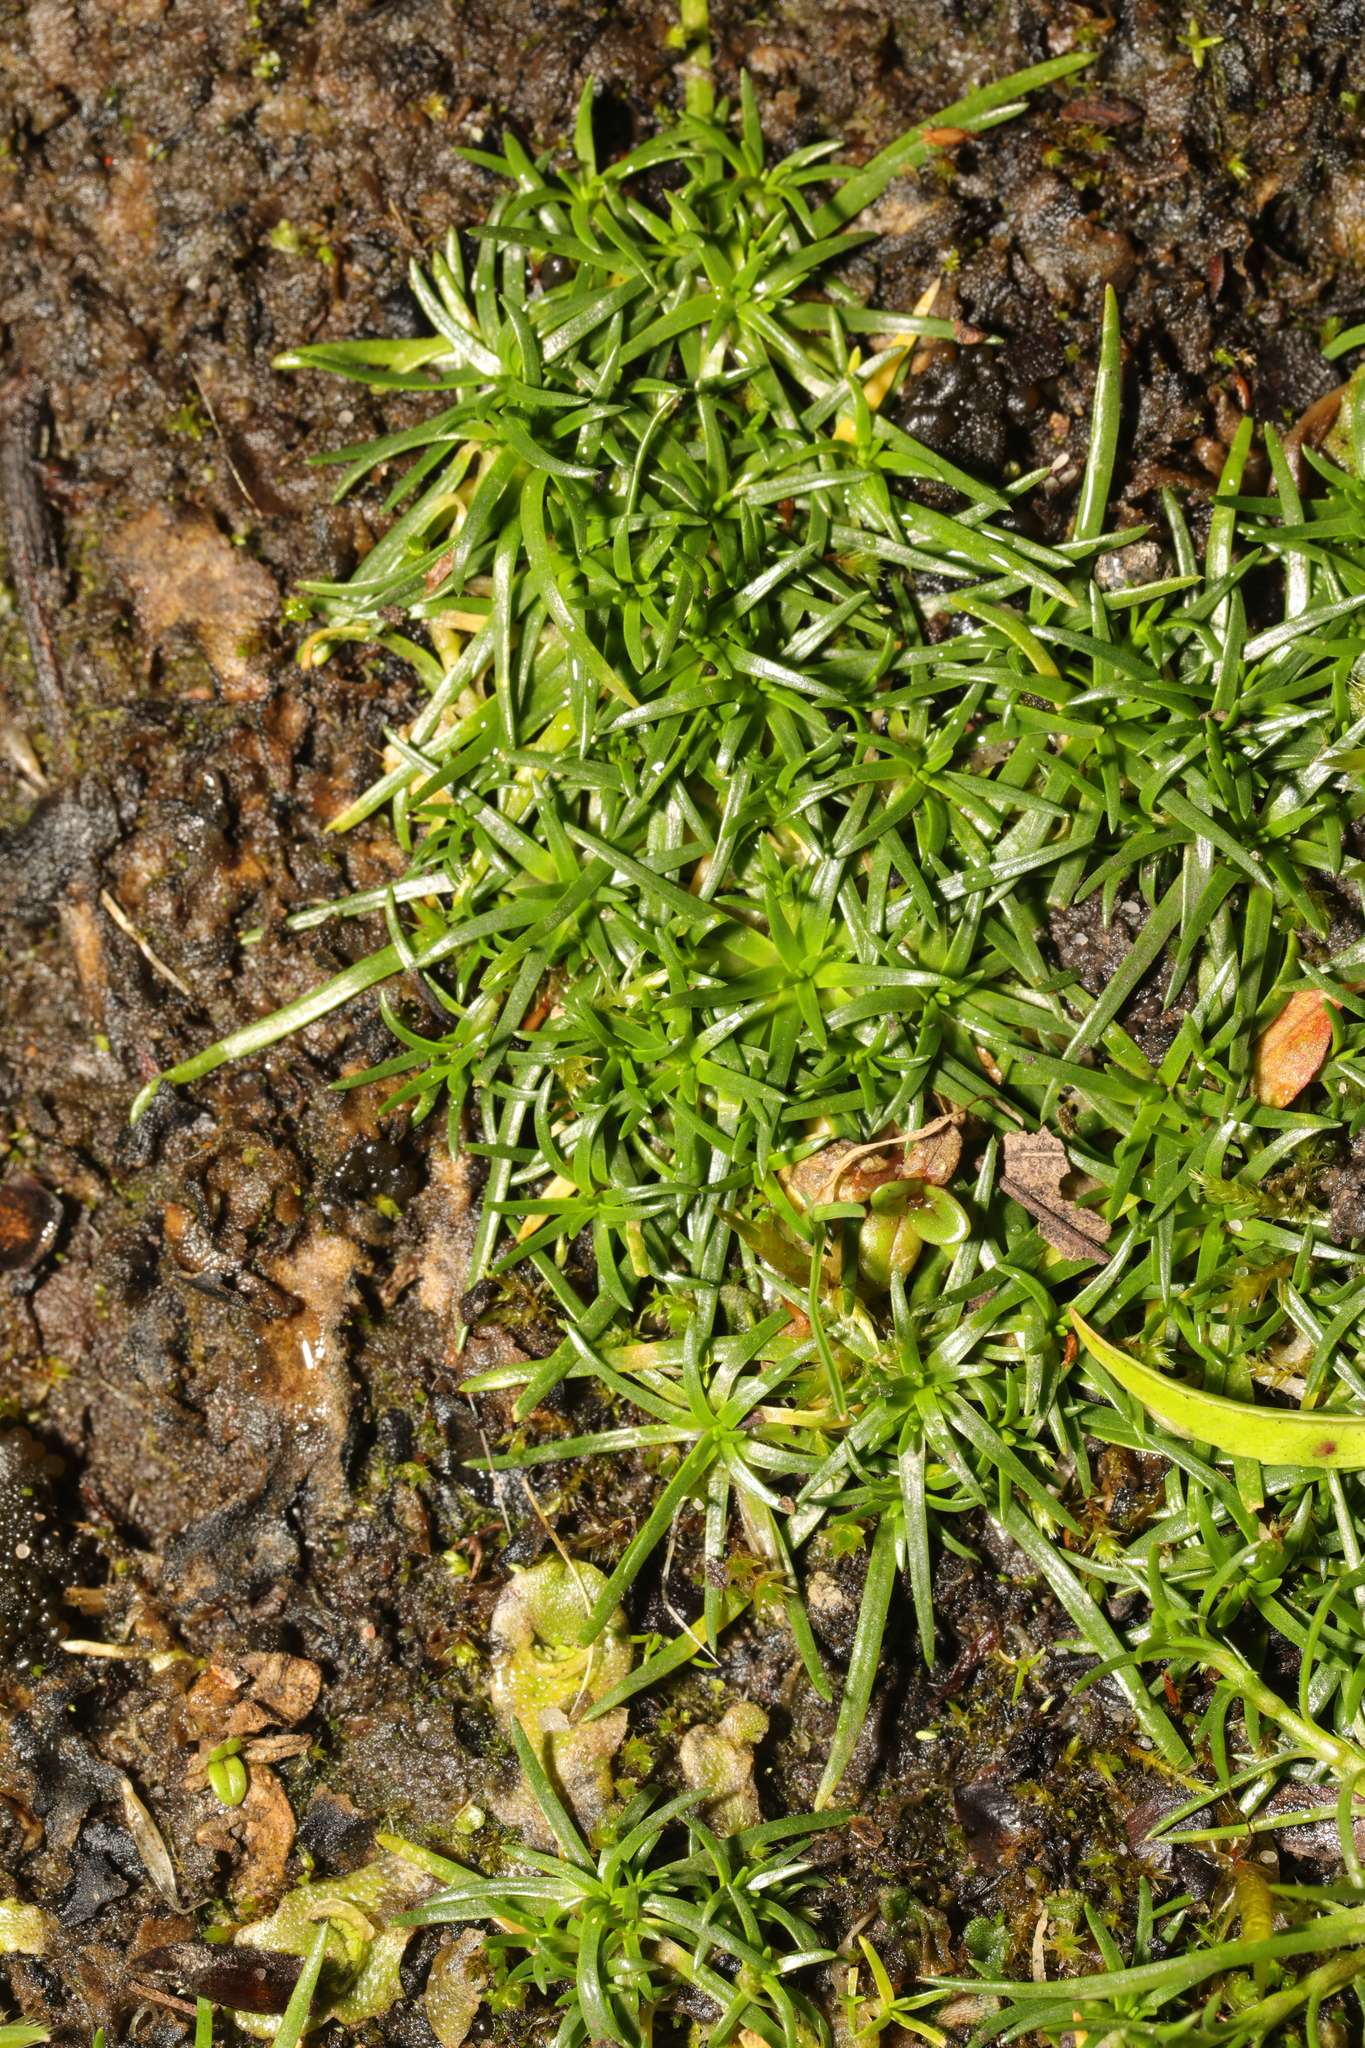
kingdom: Plantae
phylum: Tracheophyta
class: Magnoliopsida
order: Caryophyllales
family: Caryophyllaceae
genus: Sagina
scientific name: Sagina procumbens
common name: Procumbent pearlwort
